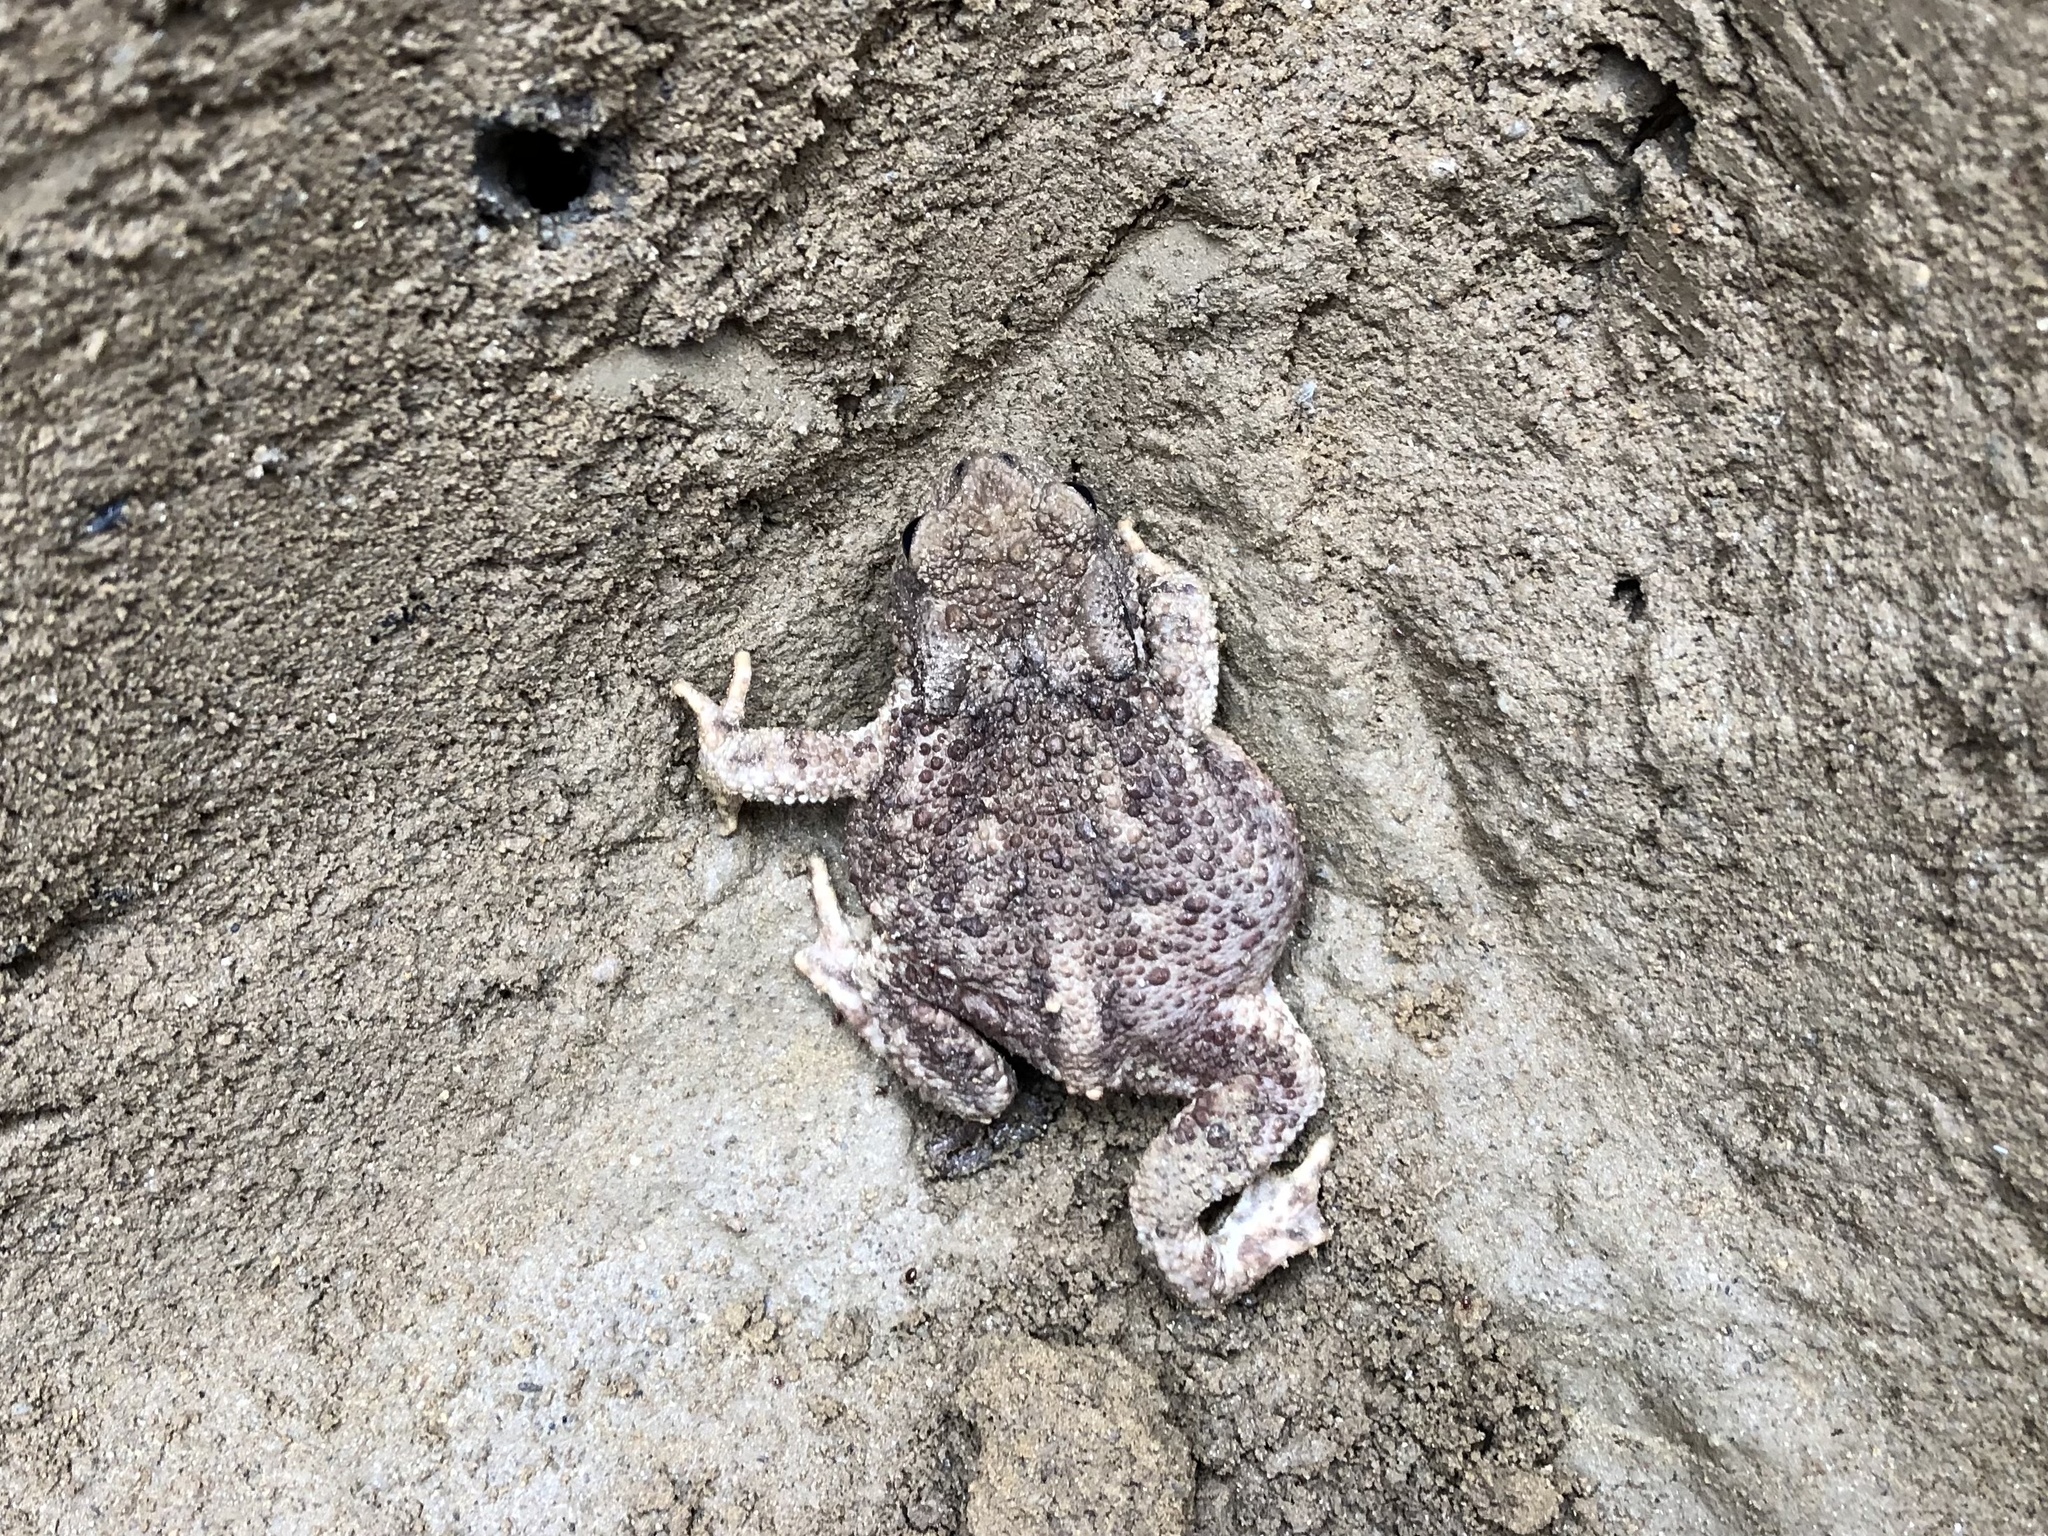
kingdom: Animalia
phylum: Chordata
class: Amphibia
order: Anura
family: Bufonidae
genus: Bufo
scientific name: Bufo bufo
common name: Common toad
